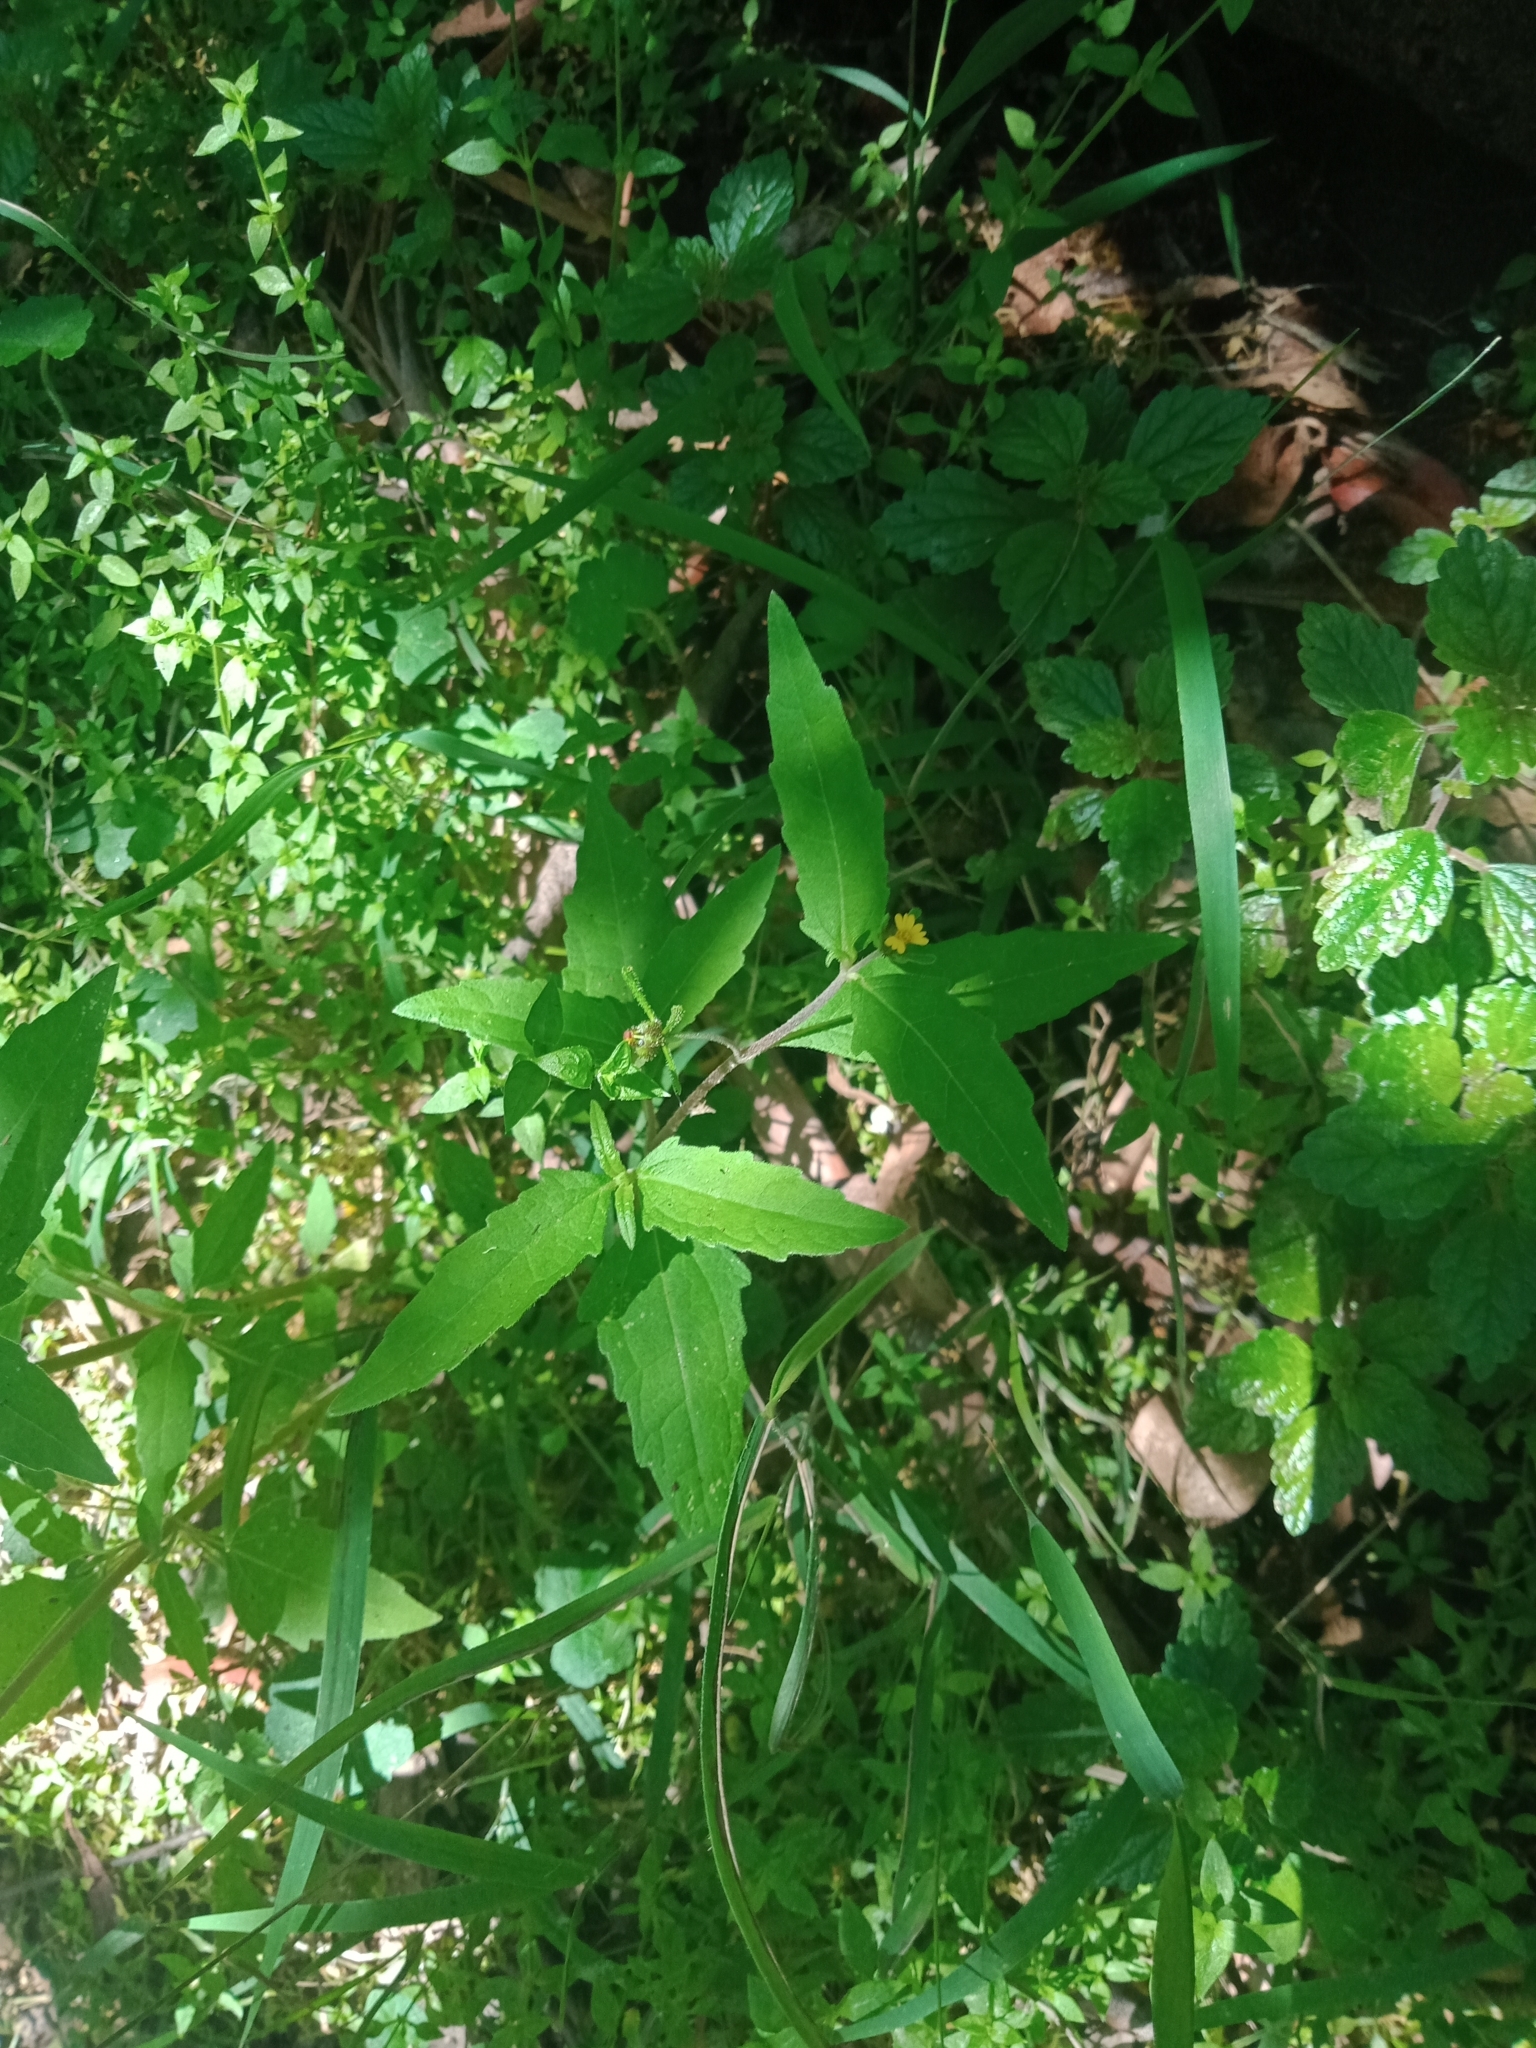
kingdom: Plantae
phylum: Tracheophyta
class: Magnoliopsida
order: Asterales
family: Asteraceae
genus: Sigesbeckia
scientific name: Sigesbeckia orientalis
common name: Eastern st paul's-wort
